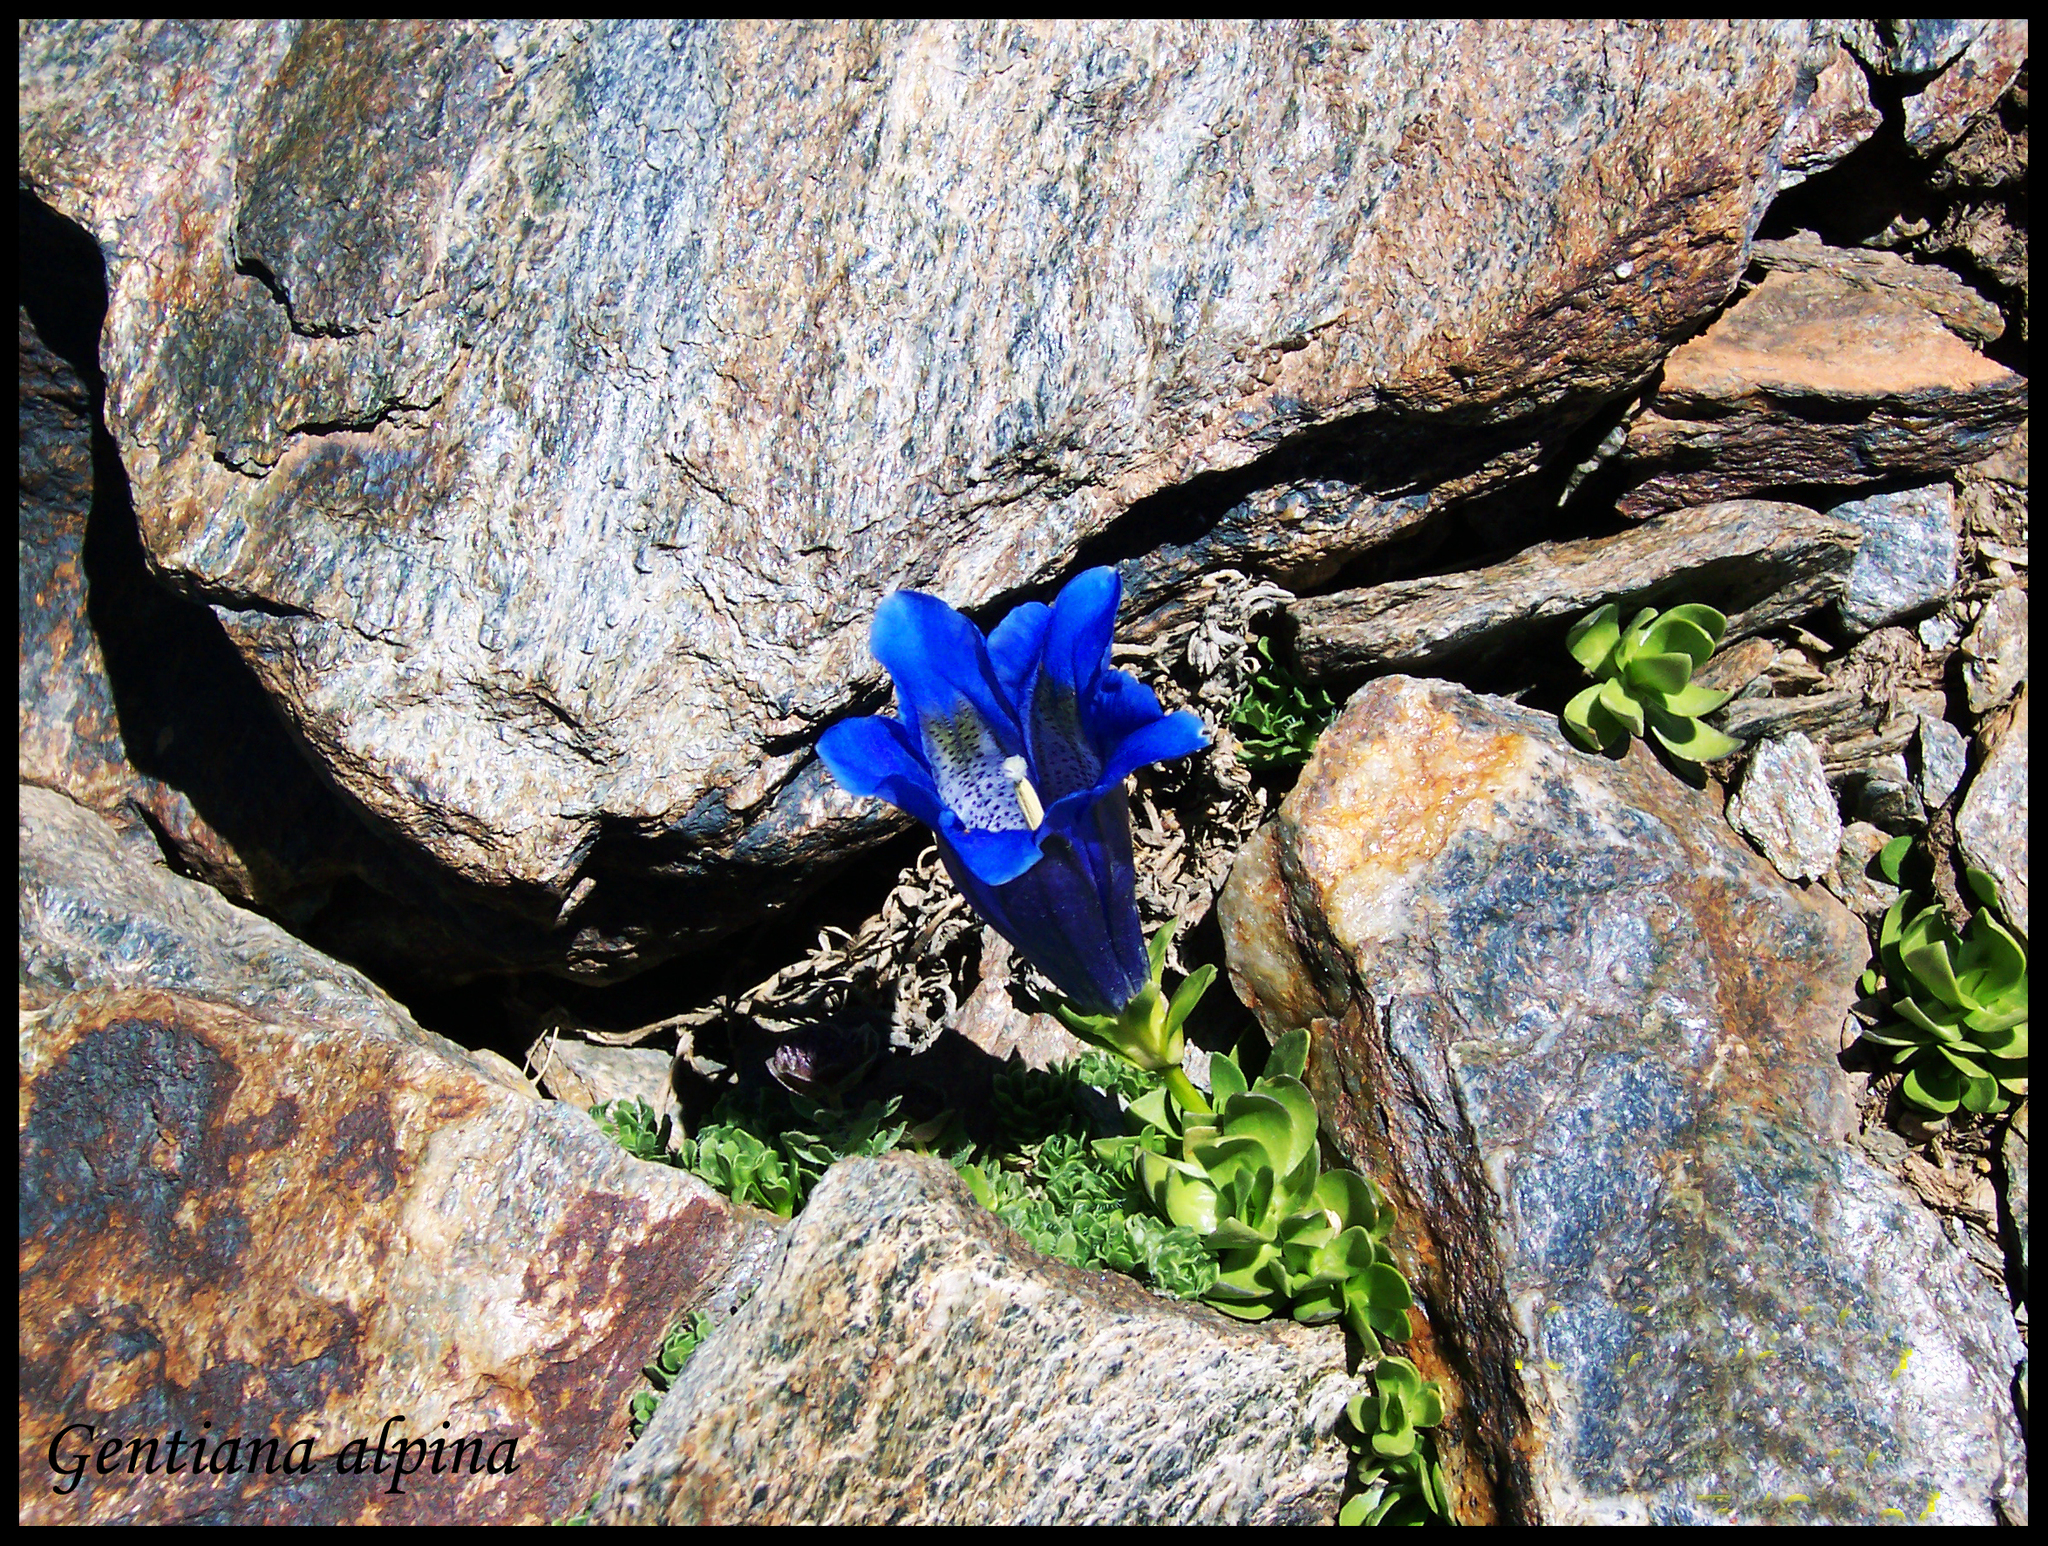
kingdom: Plantae
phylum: Tracheophyta
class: Magnoliopsida
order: Gentianales
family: Gentianaceae
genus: Gentiana
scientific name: Gentiana alpina
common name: Southern gentian
